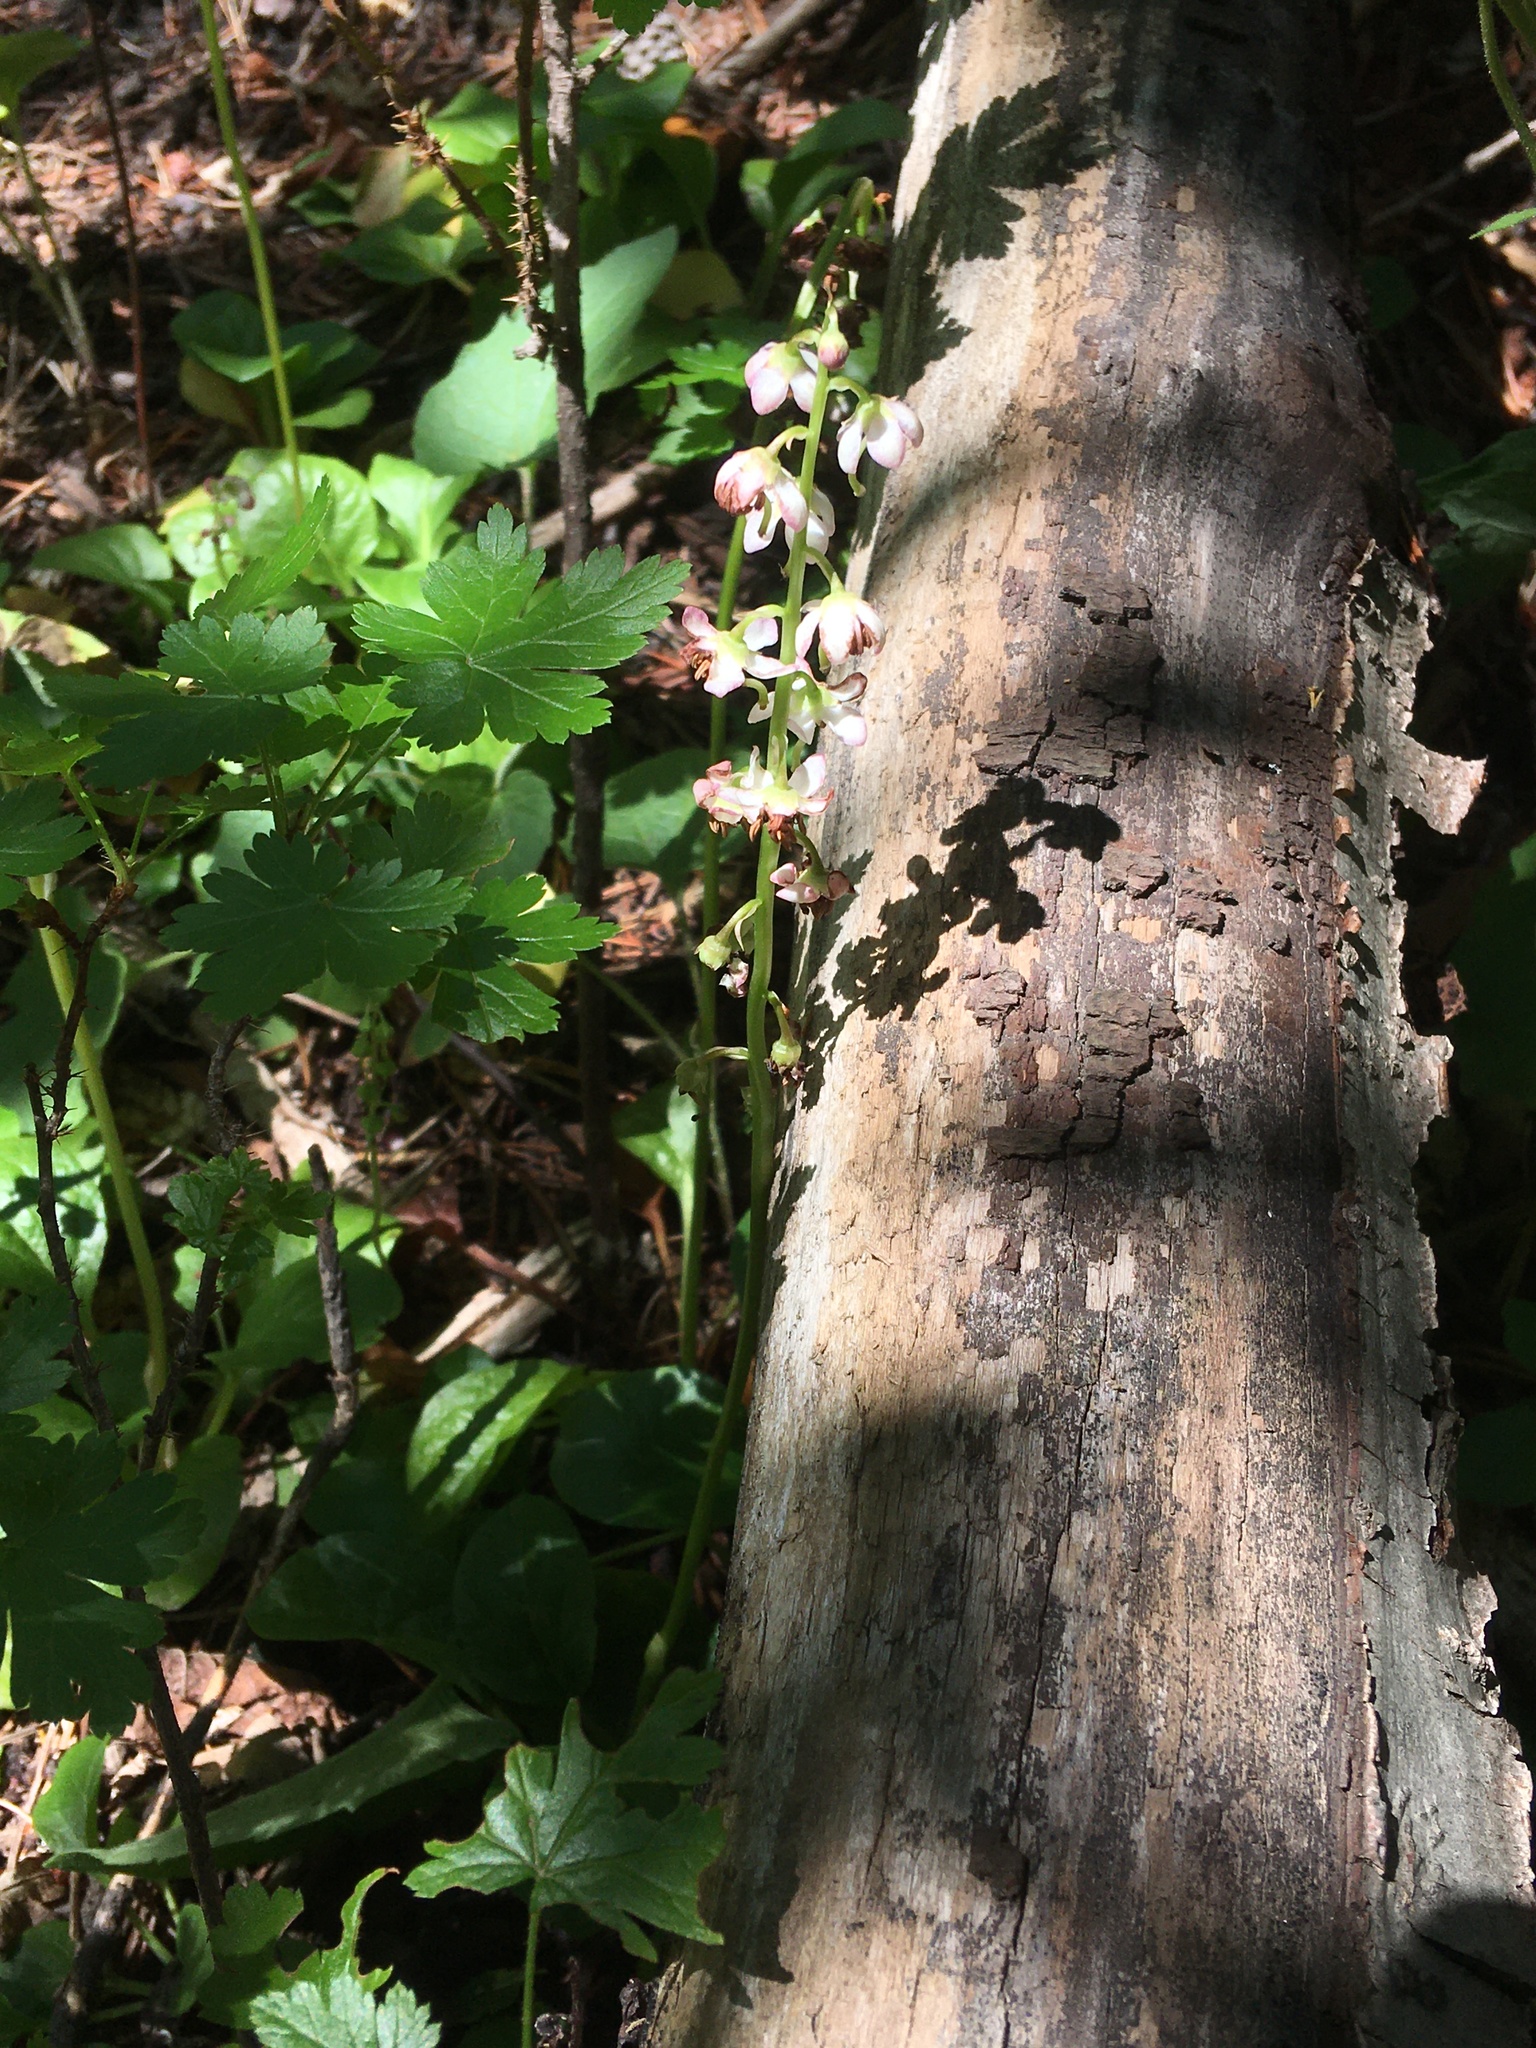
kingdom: Plantae
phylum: Tracheophyta
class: Magnoliopsida
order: Ericales
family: Ericaceae
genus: Pyrola
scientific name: Pyrola asarifolia
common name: Bog wintergreen
